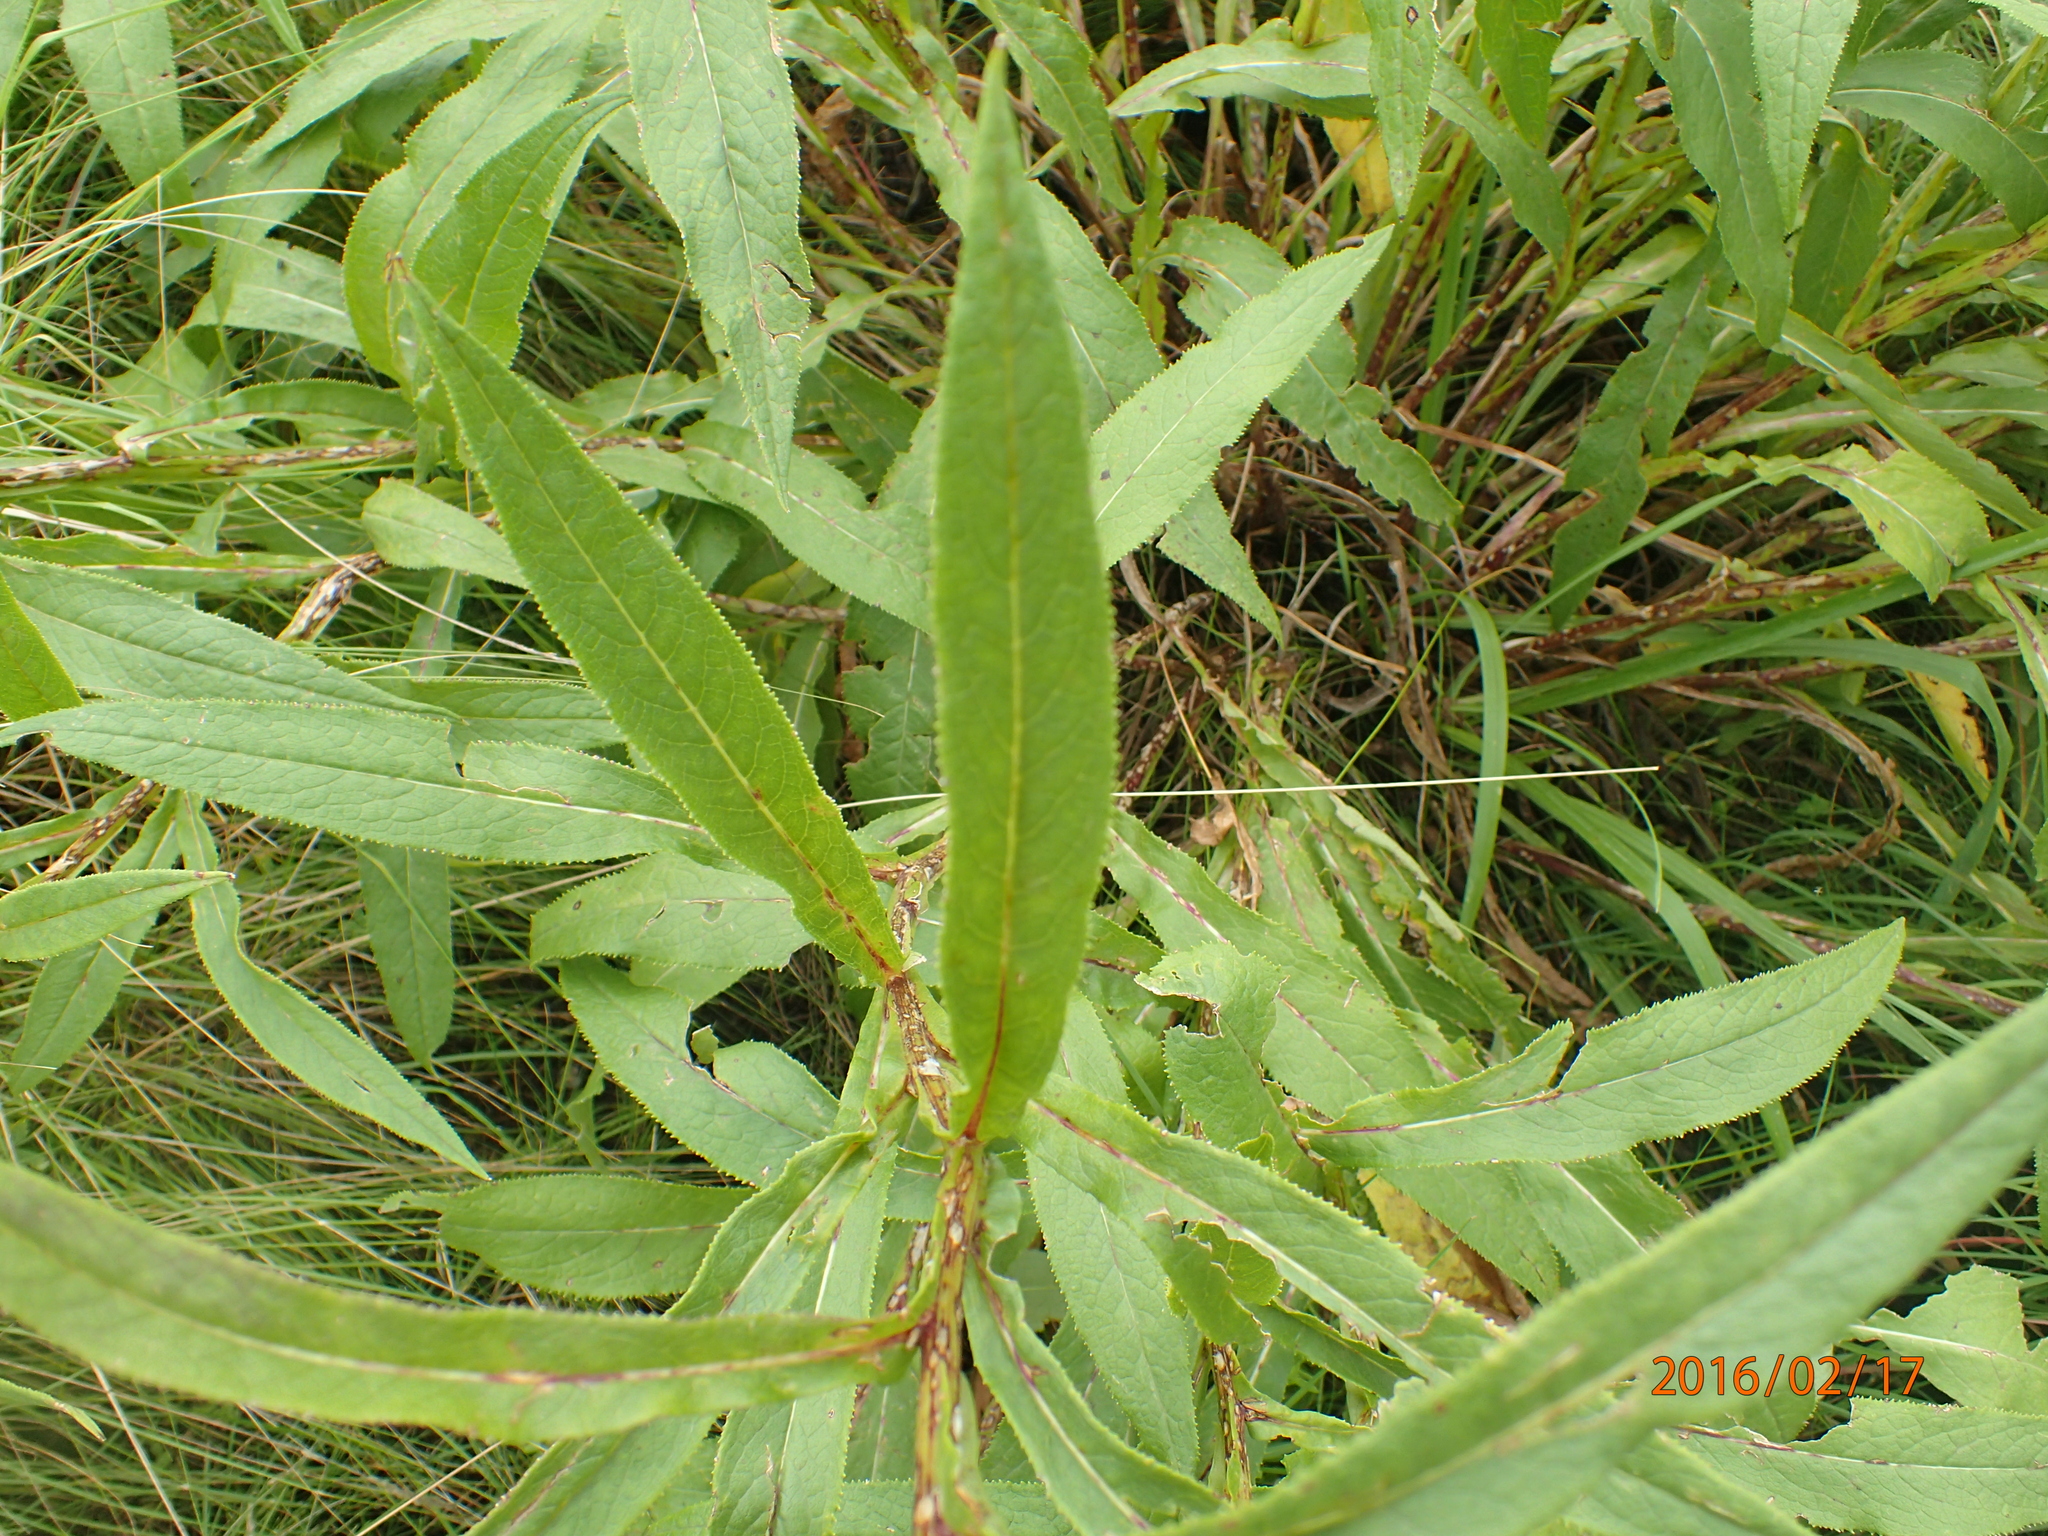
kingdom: Plantae
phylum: Tracheophyta
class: Magnoliopsida
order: Asterales
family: Asteraceae
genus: Senecio
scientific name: Senecio inornatus
